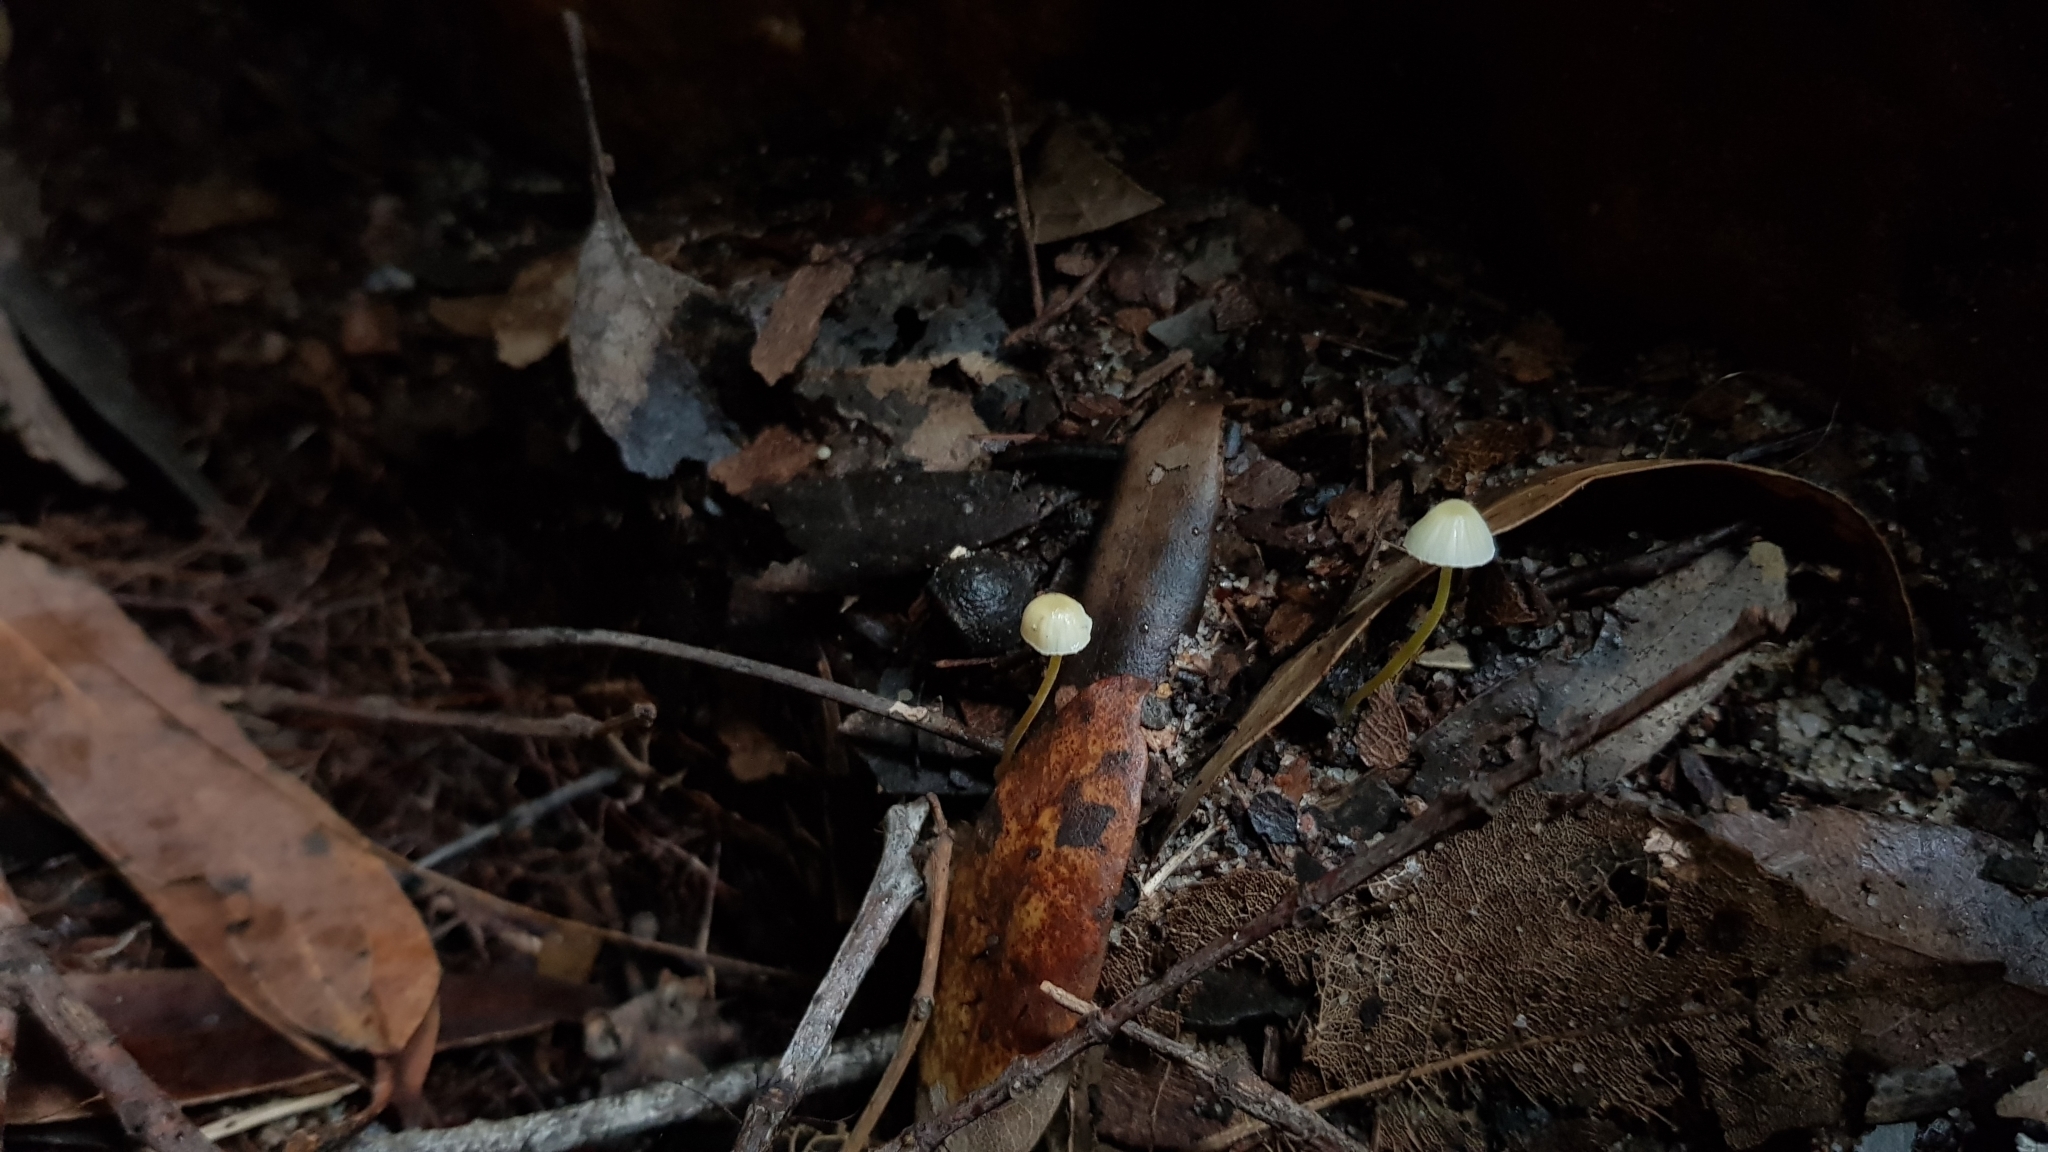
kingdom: Fungi
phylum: Basidiomycota
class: Agaricomycetes
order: Agaricales
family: Mycenaceae
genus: Mycena
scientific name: Mycena epipterygia
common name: Yellowleg bonnet
